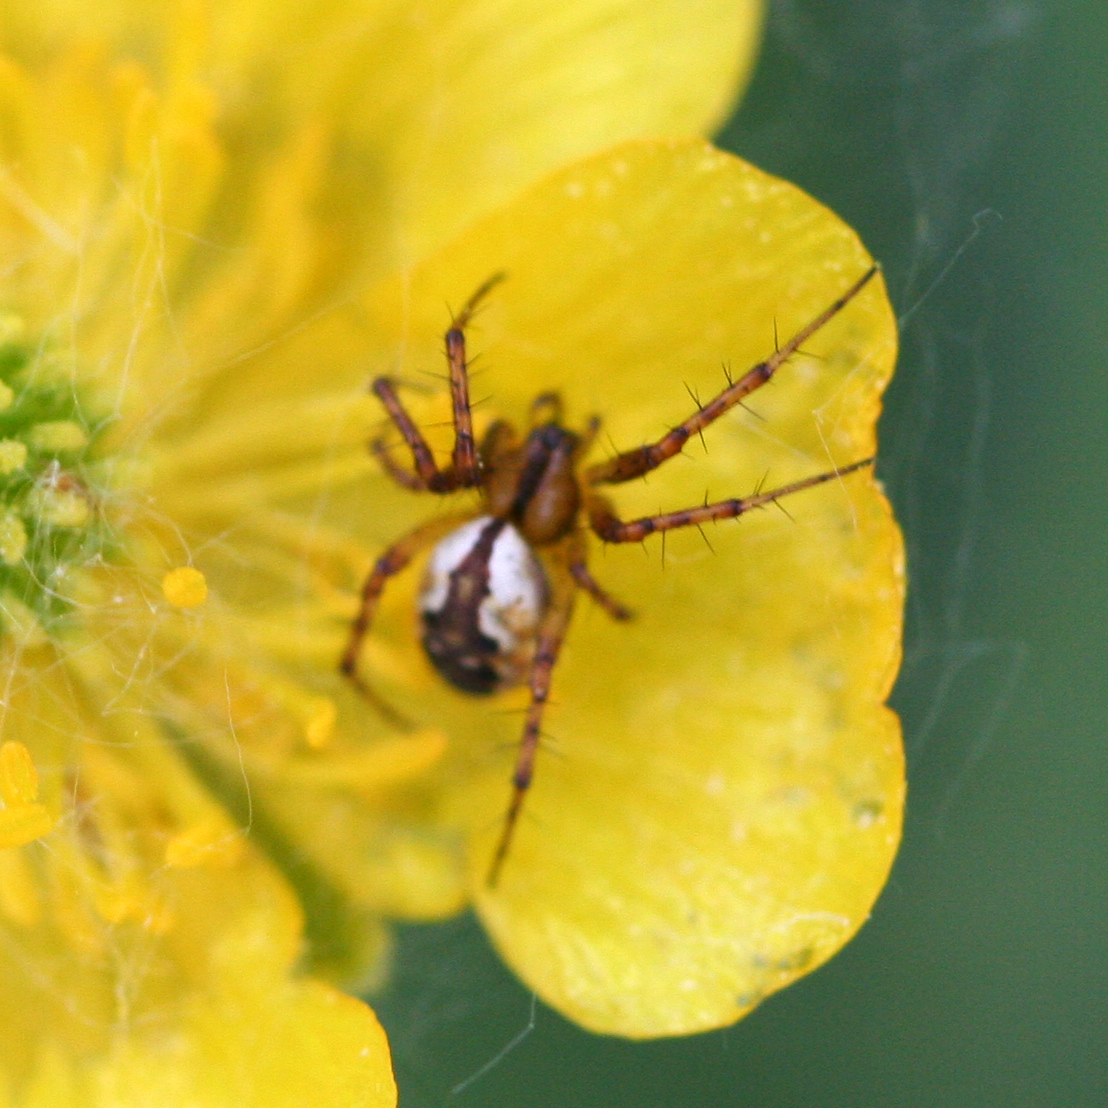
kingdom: Animalia
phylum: Arthropoda
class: Arachnida
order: Araneae
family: Araneidae
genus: Mangora
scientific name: Mangora placida
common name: Tuft-legged orbweaver
